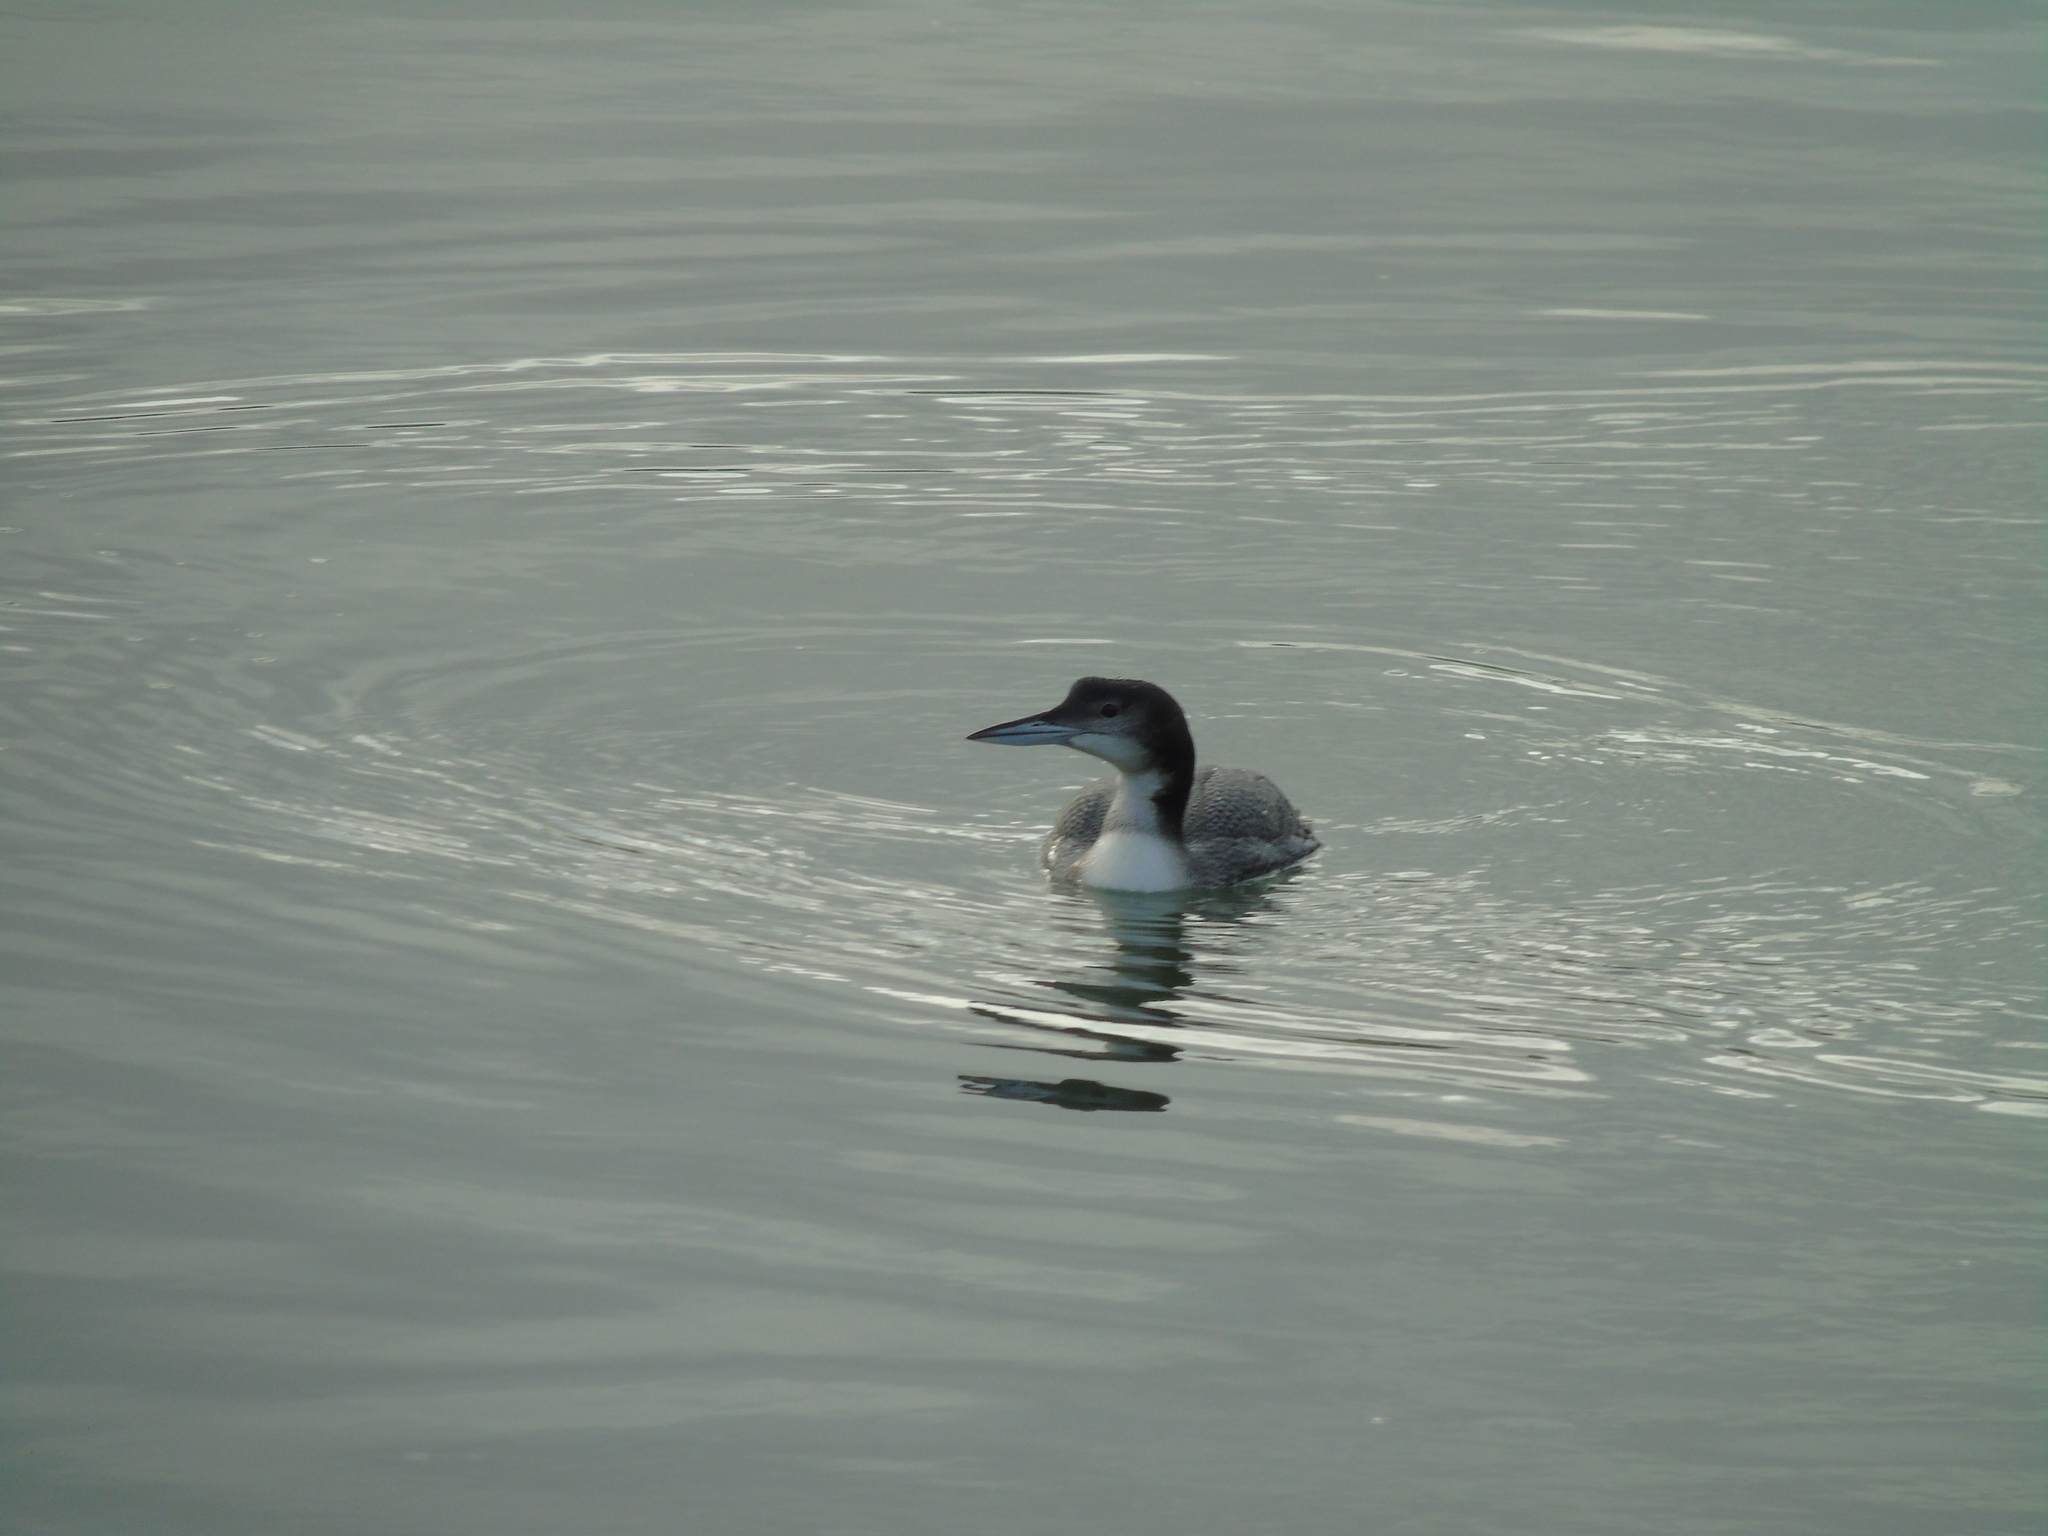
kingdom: Animalia
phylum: Chordata
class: Aves
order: Gaviiformes
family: Gaviidae
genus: Gavia
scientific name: Gavia immer
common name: Common loon
